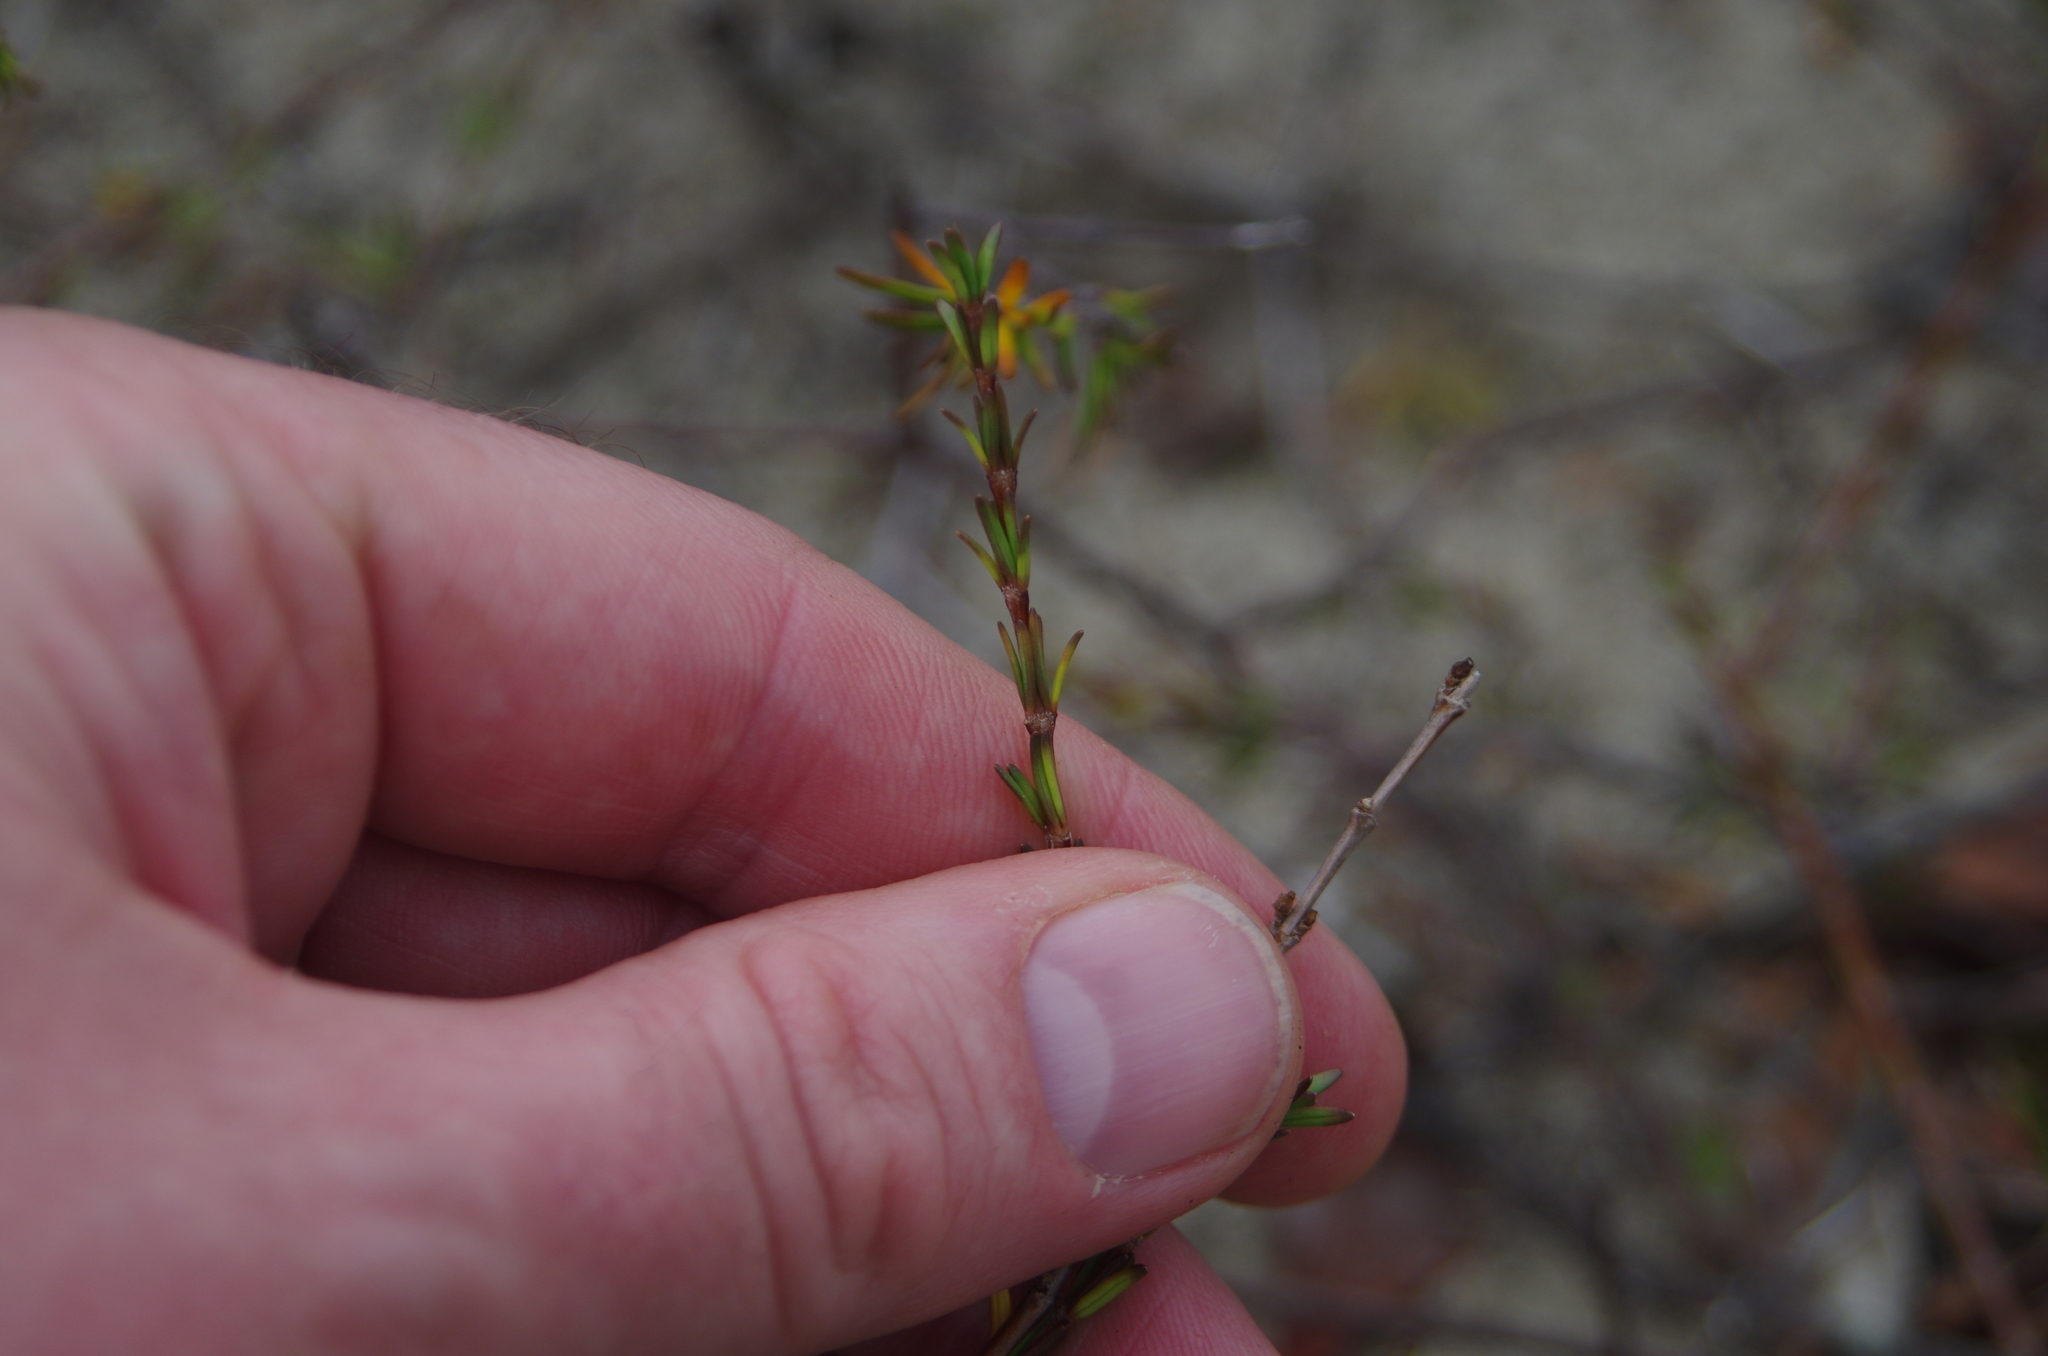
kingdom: Plantae
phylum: Tracheophyta
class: Magnoliopsida
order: Gentianales
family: Rubiaceae
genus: Coprosma
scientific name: Coprosma acerosa
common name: Sand coprosma
